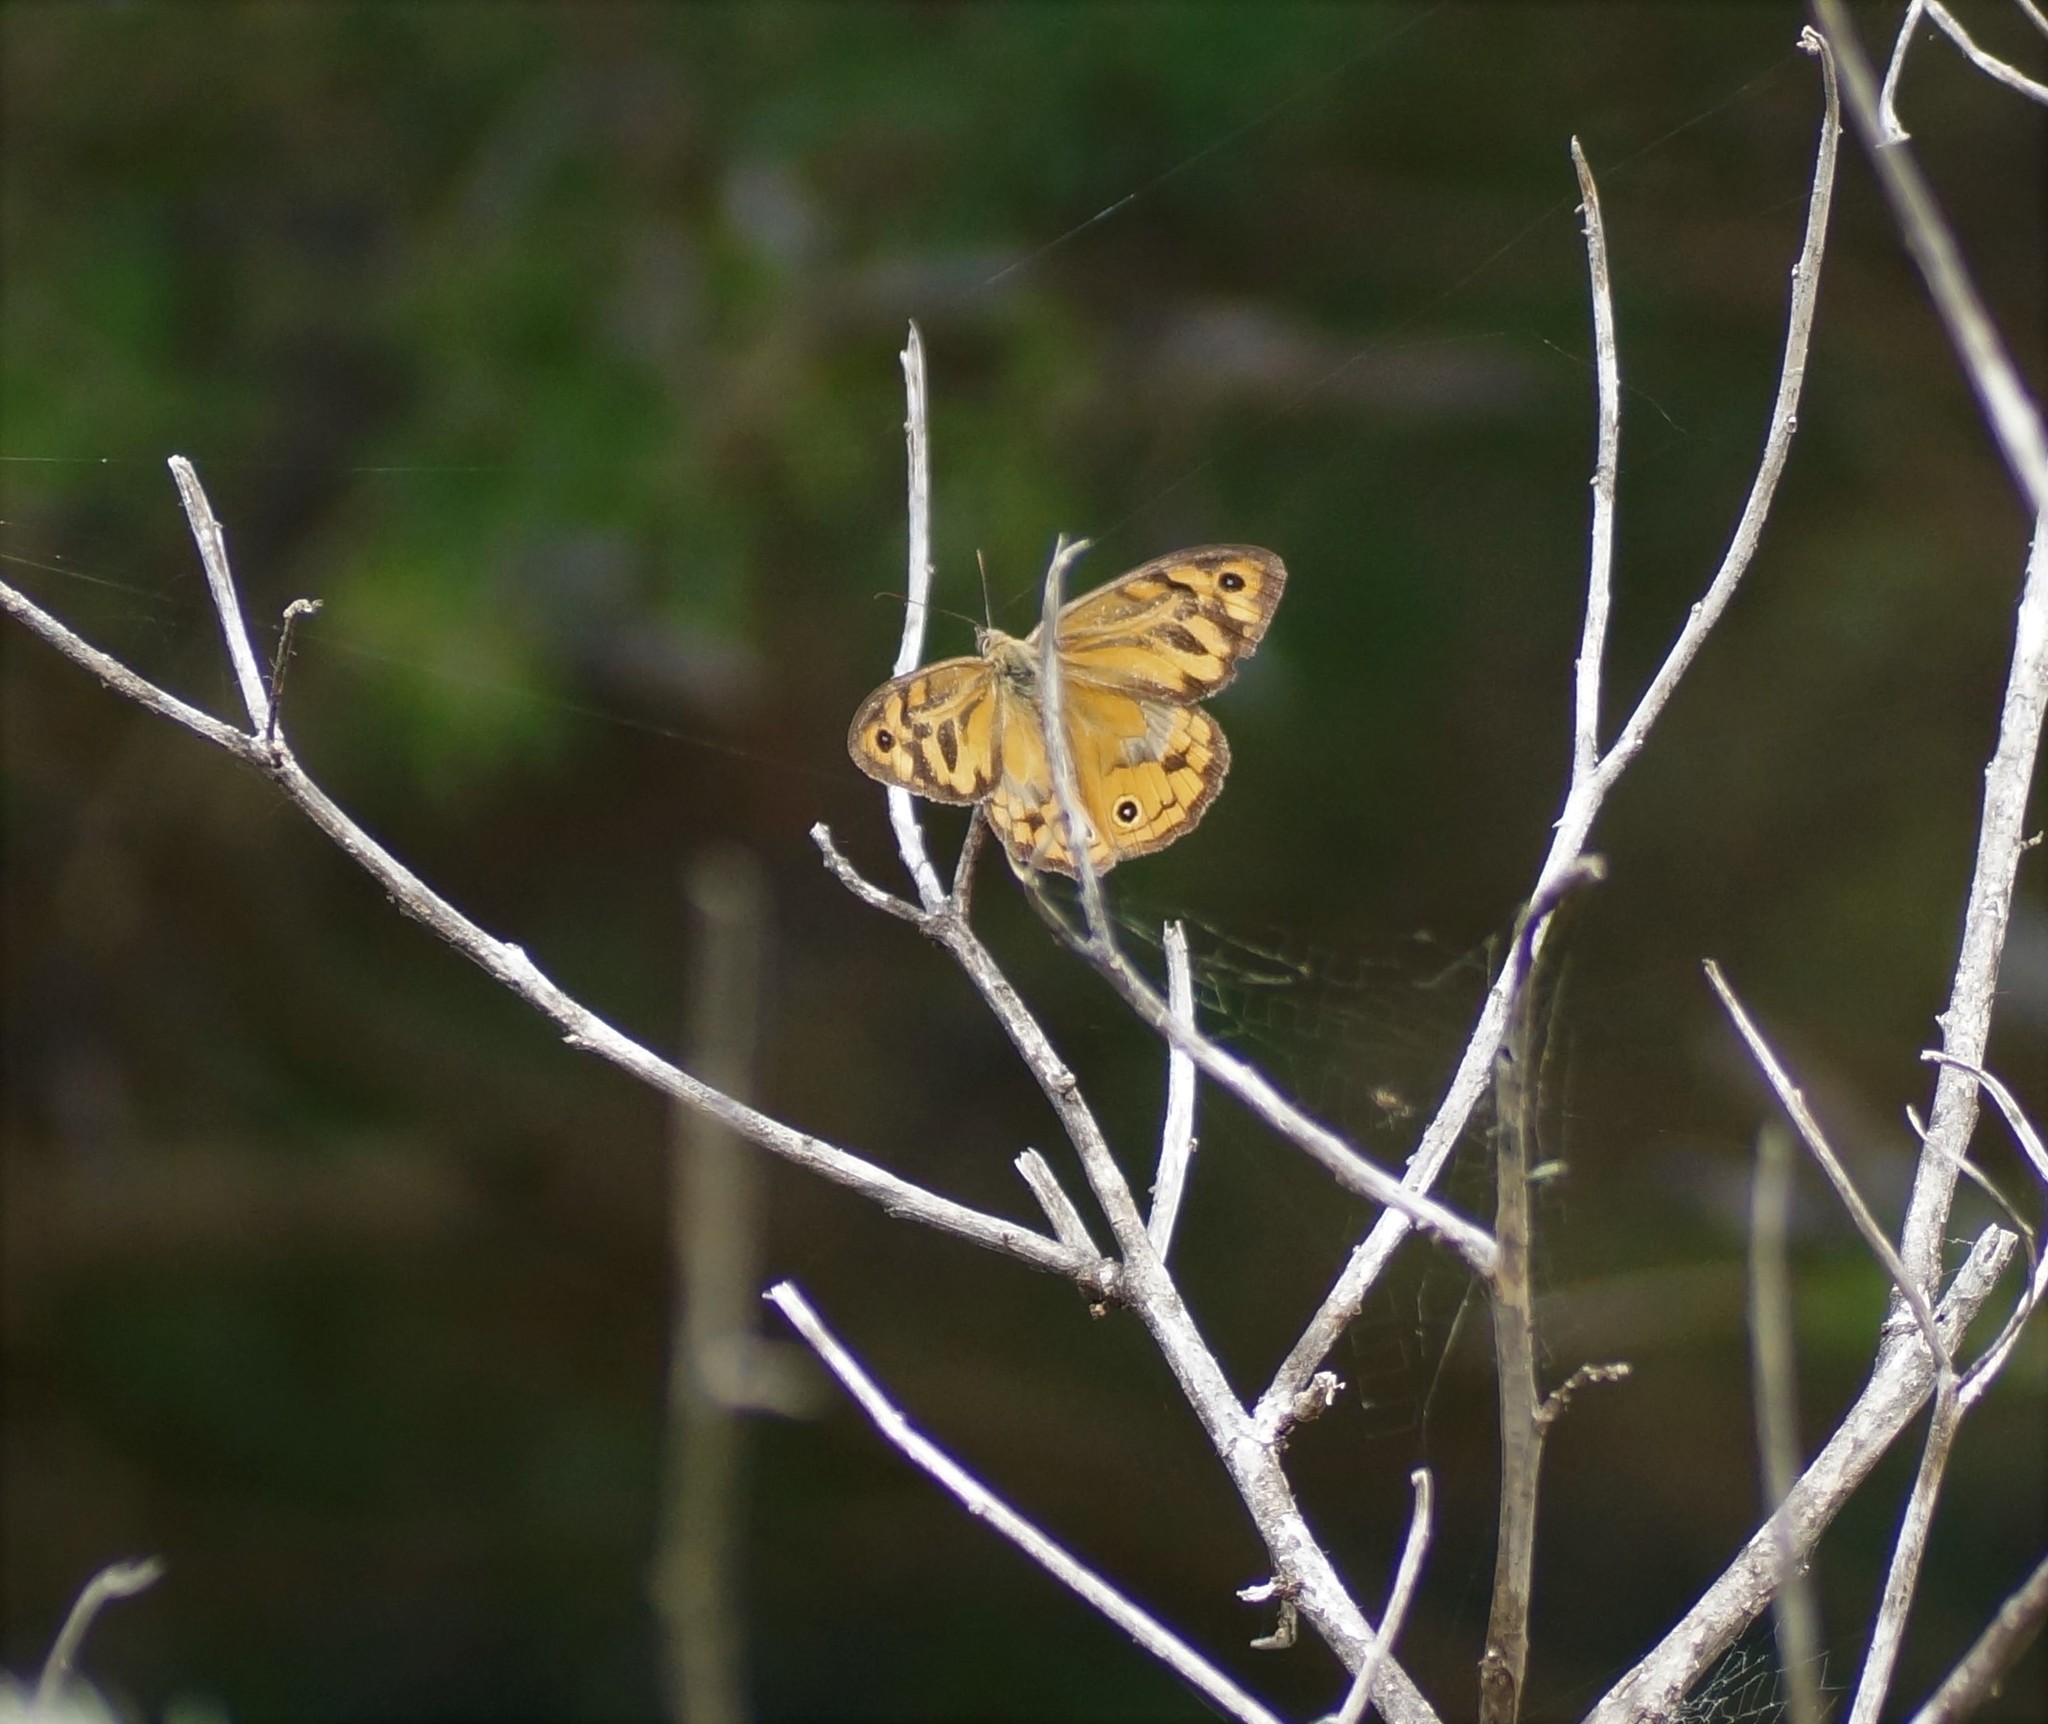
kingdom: Animalia
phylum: Arthropoda
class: Insecta
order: Lepidoptera
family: Nymphalidae
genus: Heteronympha
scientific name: Heteronympha merope
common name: Common brown
